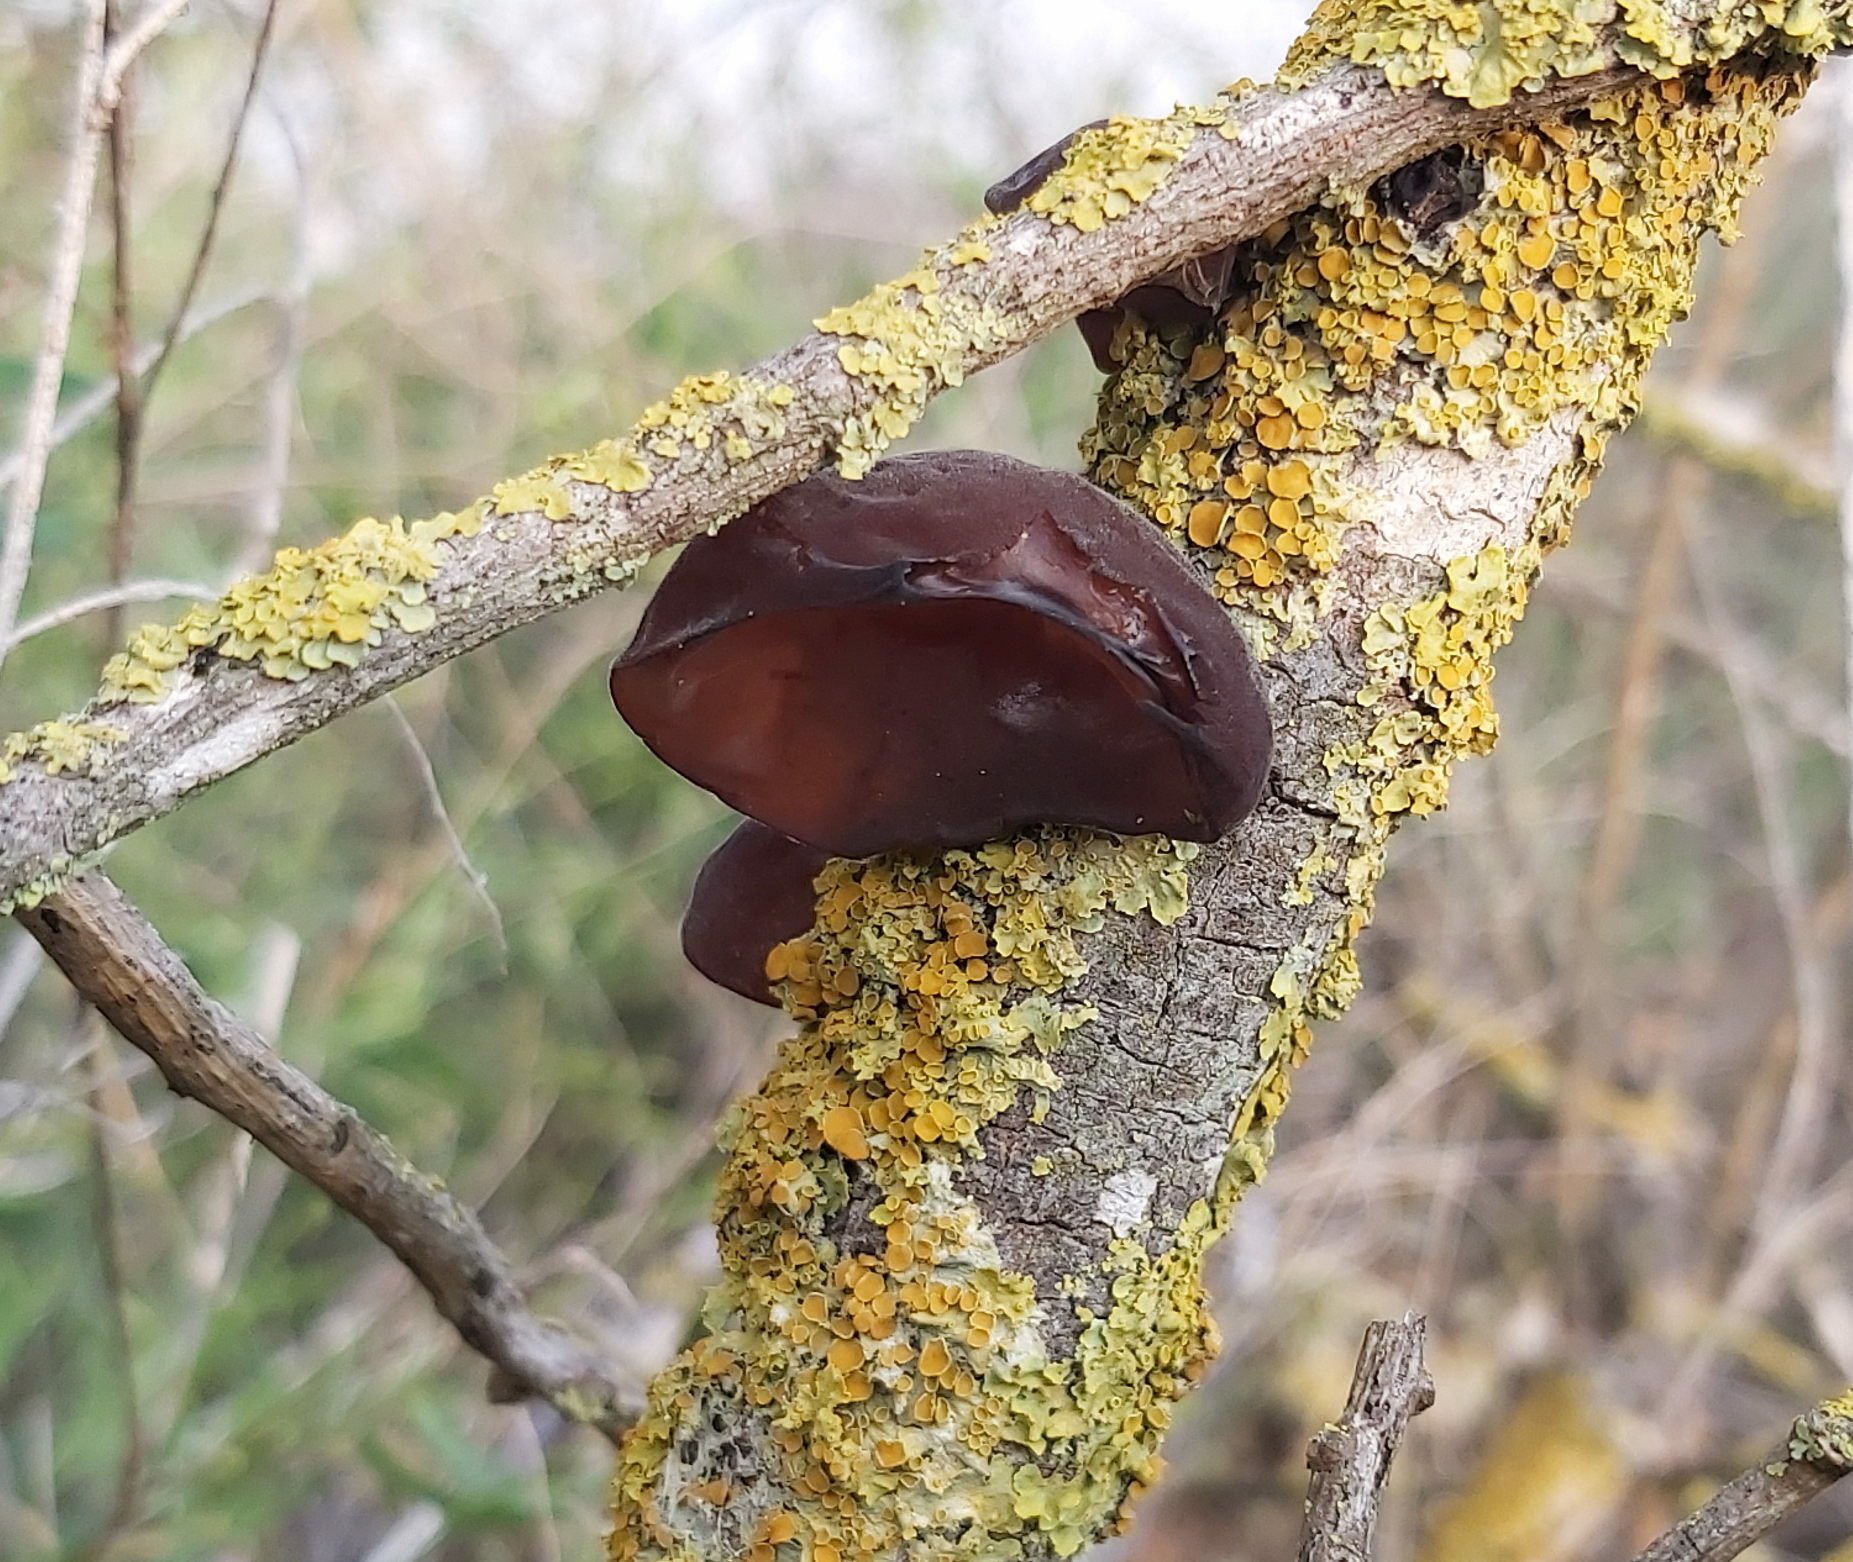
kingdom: Fungi
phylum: Basidiomycota
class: Agaricomycetes
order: Auriculariales
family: Auriculariaceae
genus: Auricularia
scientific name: Auricularia auricula-judae
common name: Jelly ear
